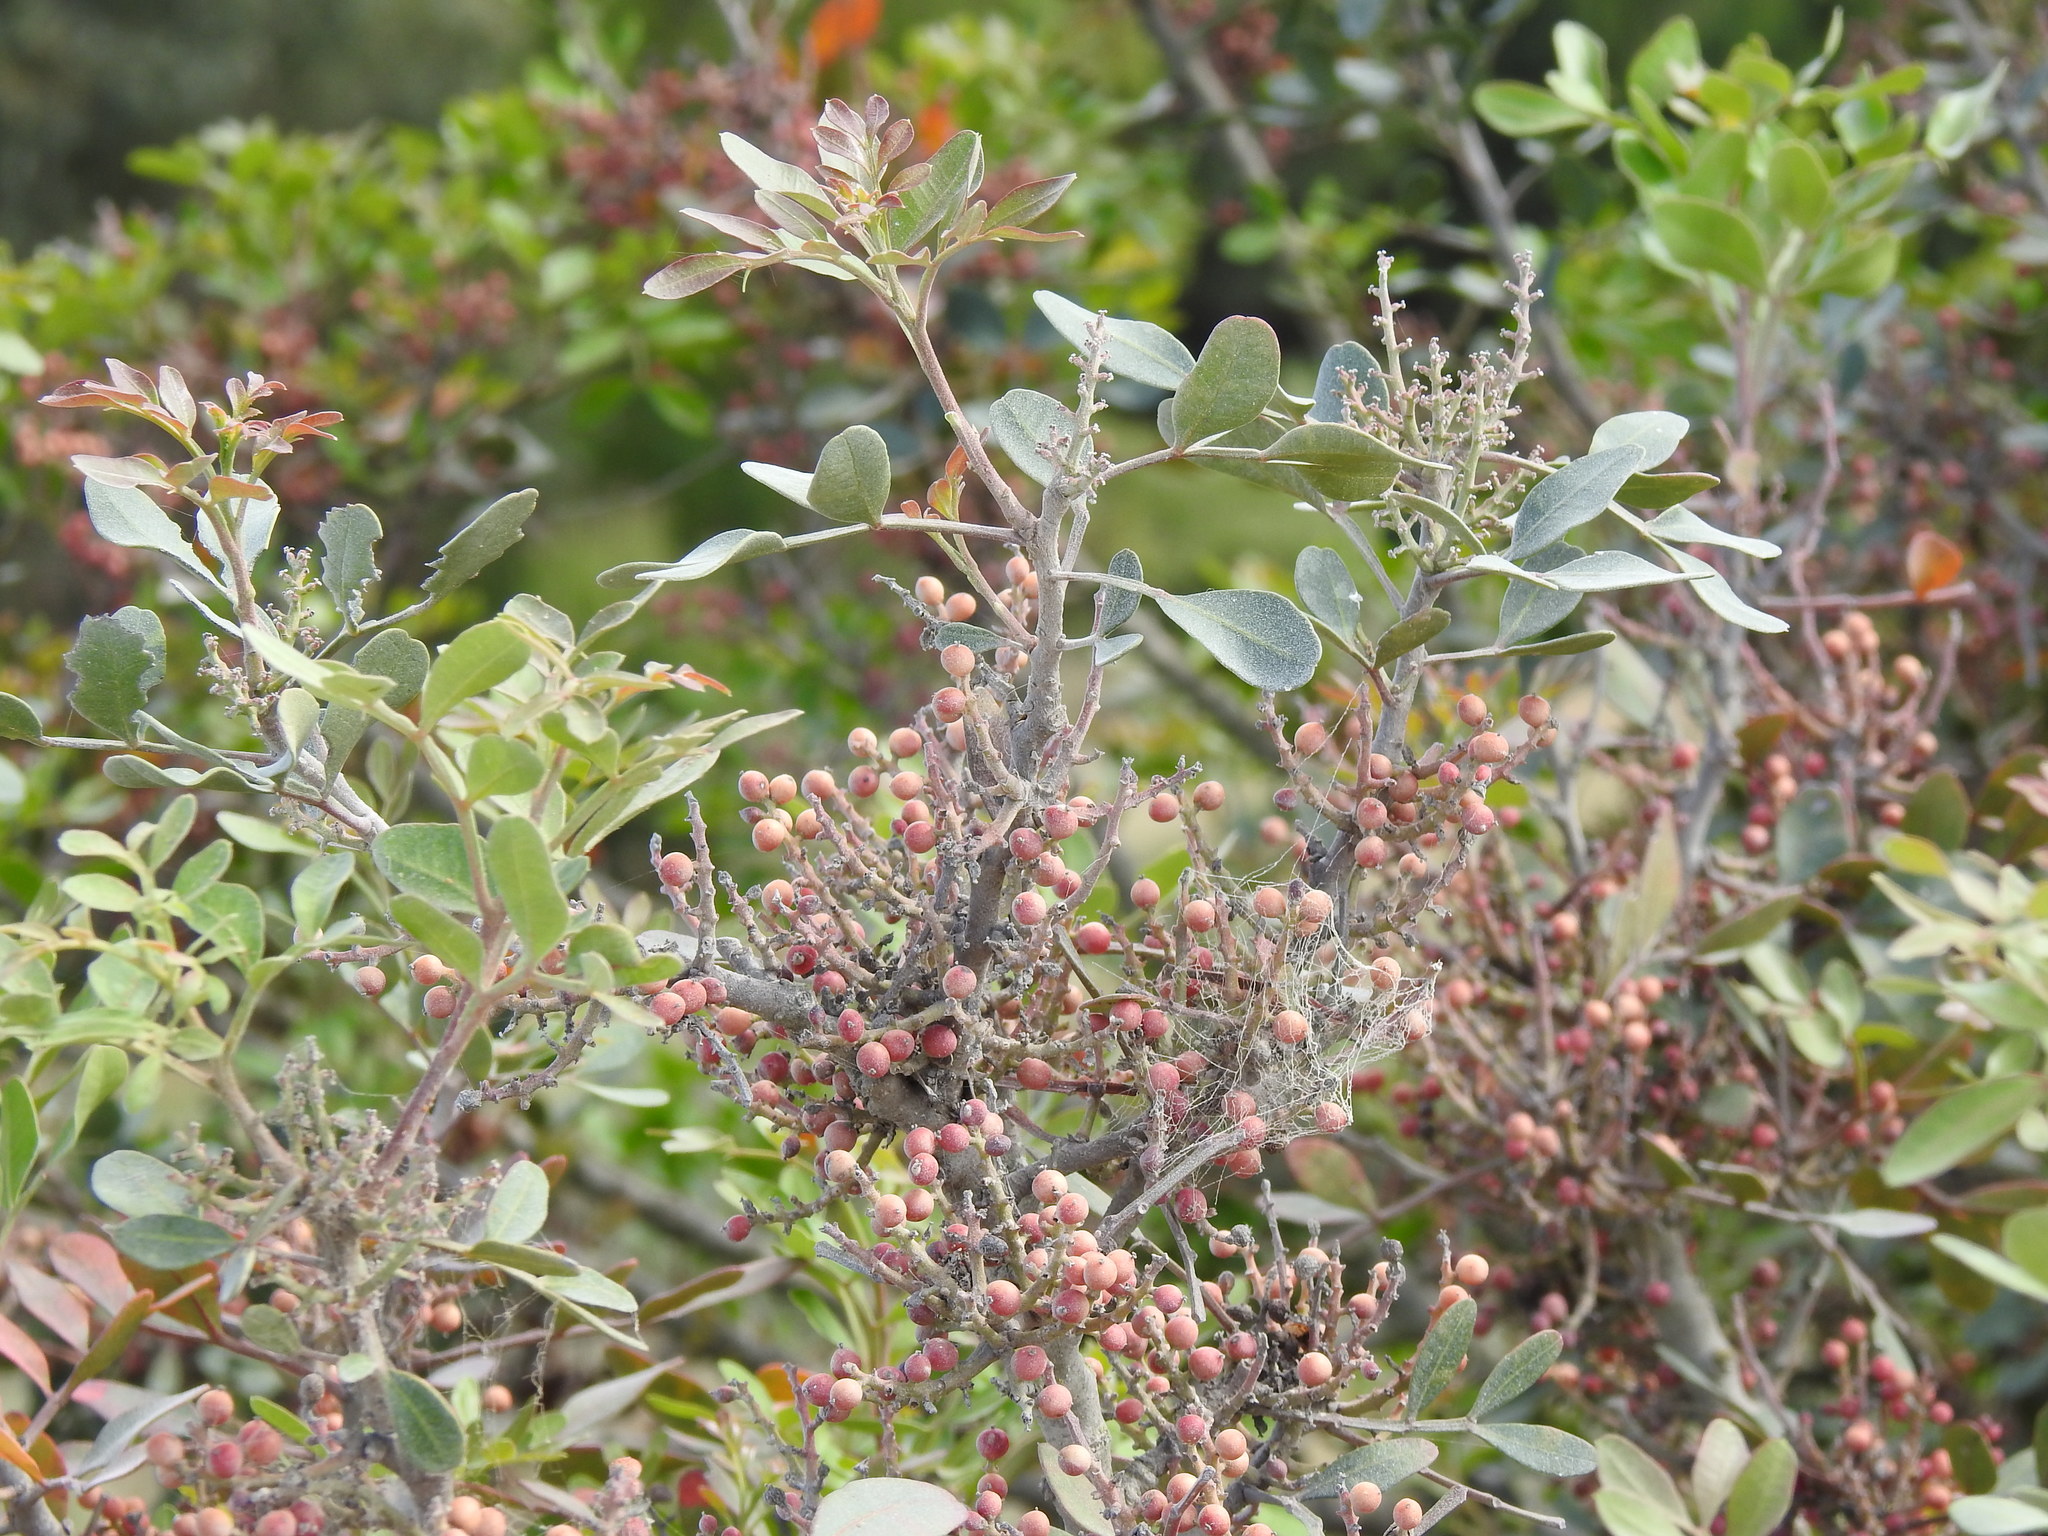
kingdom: Plantae
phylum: Tracheophyta
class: Magnoliopsida
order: Sapindales
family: Anacardiaceae
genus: Pistacia
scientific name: Pistacia lentiscus
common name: Lentisk
